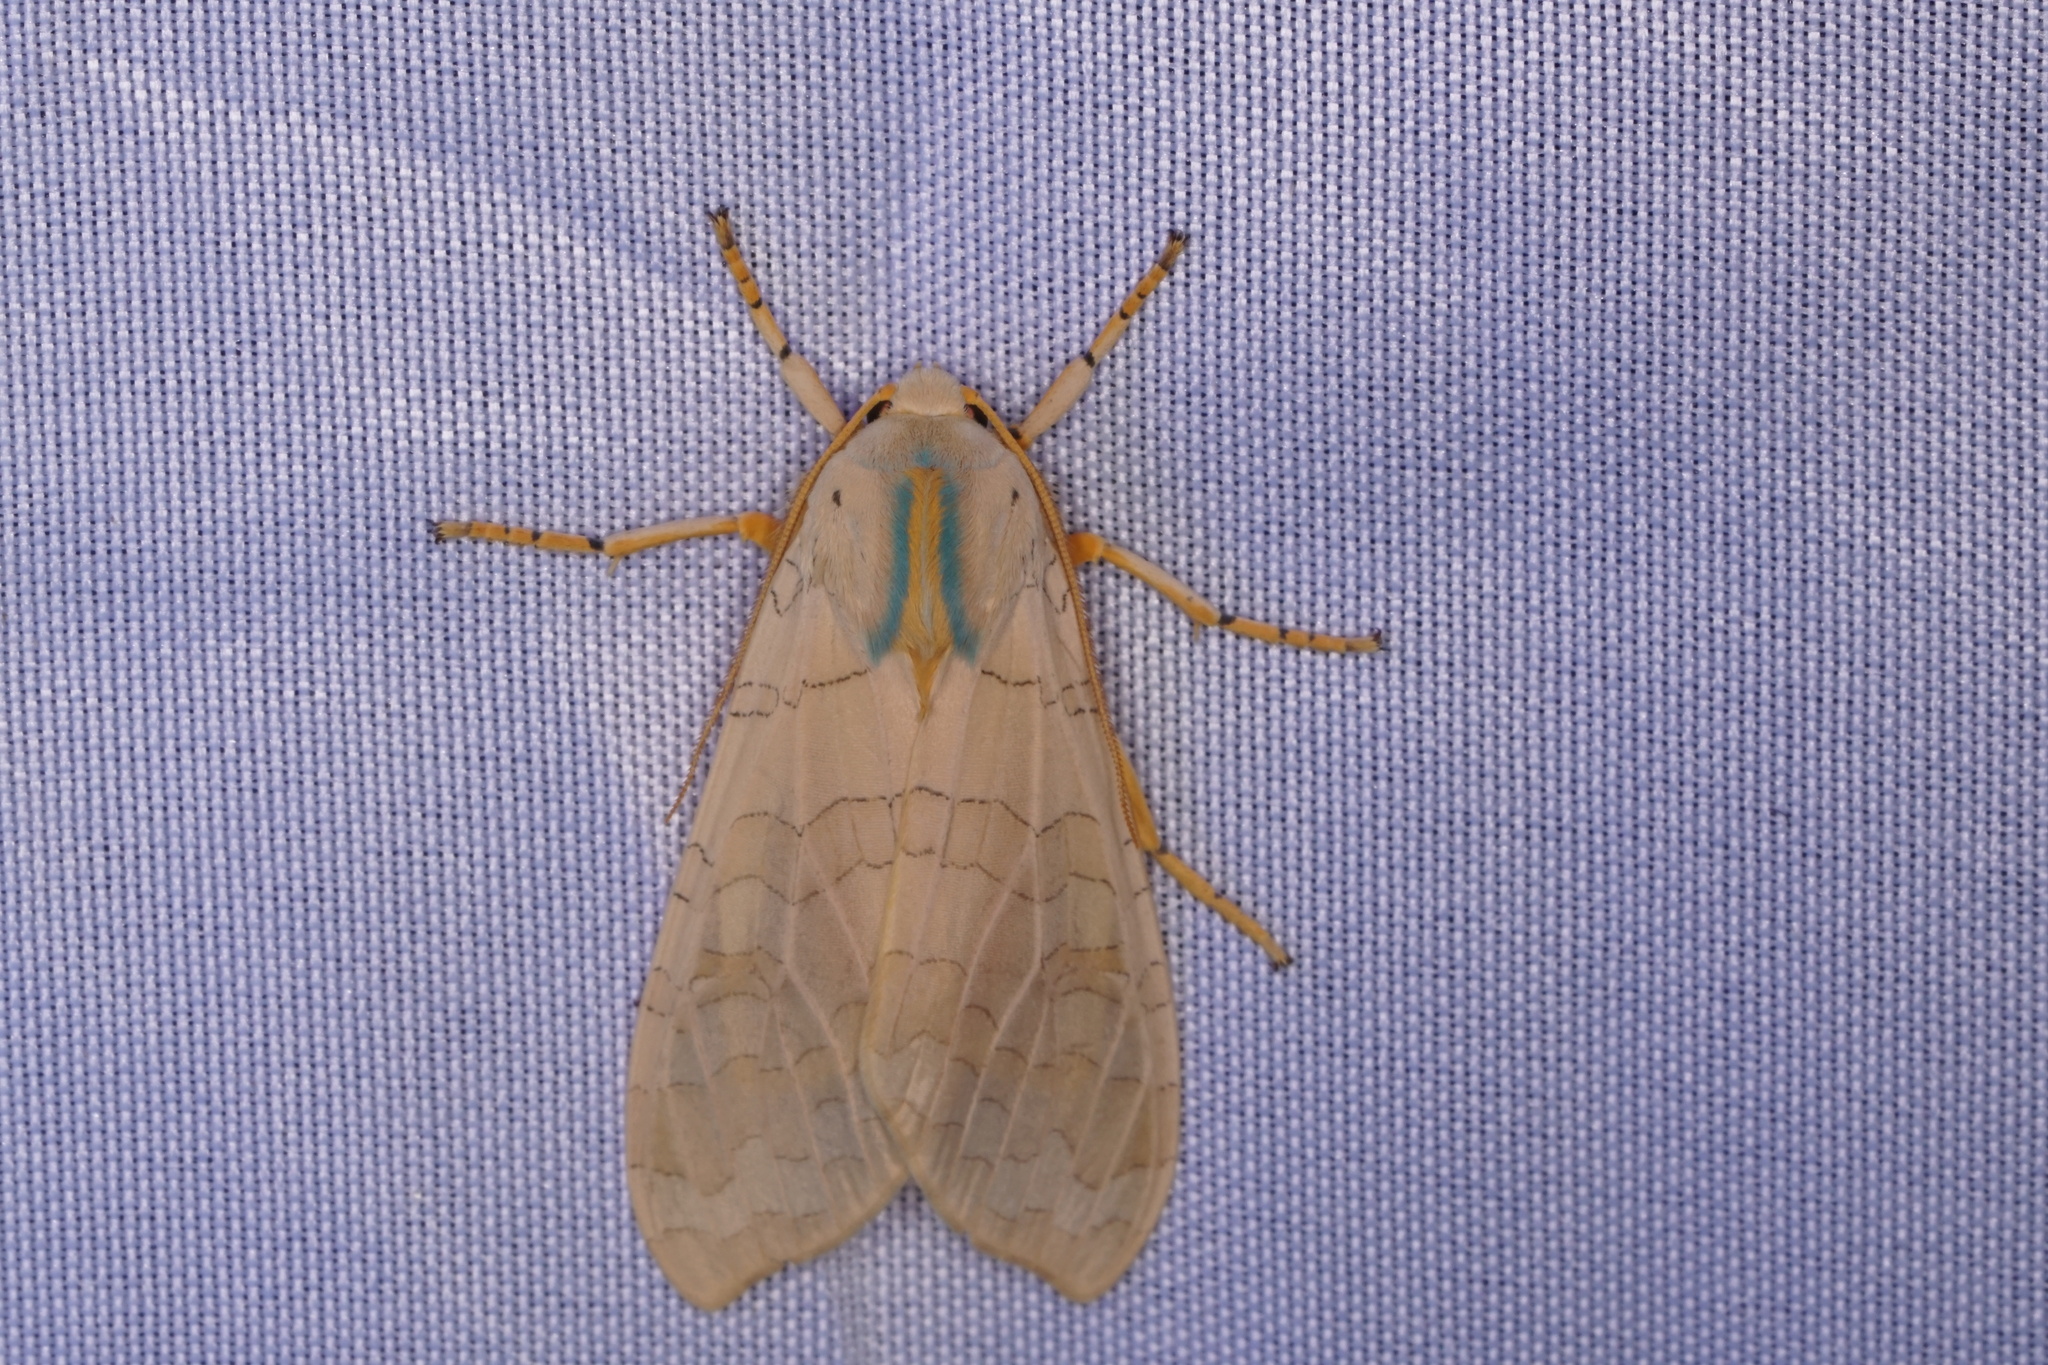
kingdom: Animalia
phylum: Arthropoda
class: Insecta
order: Lepidoptera
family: Erebidae
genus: Halysidota
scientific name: Halysidota
